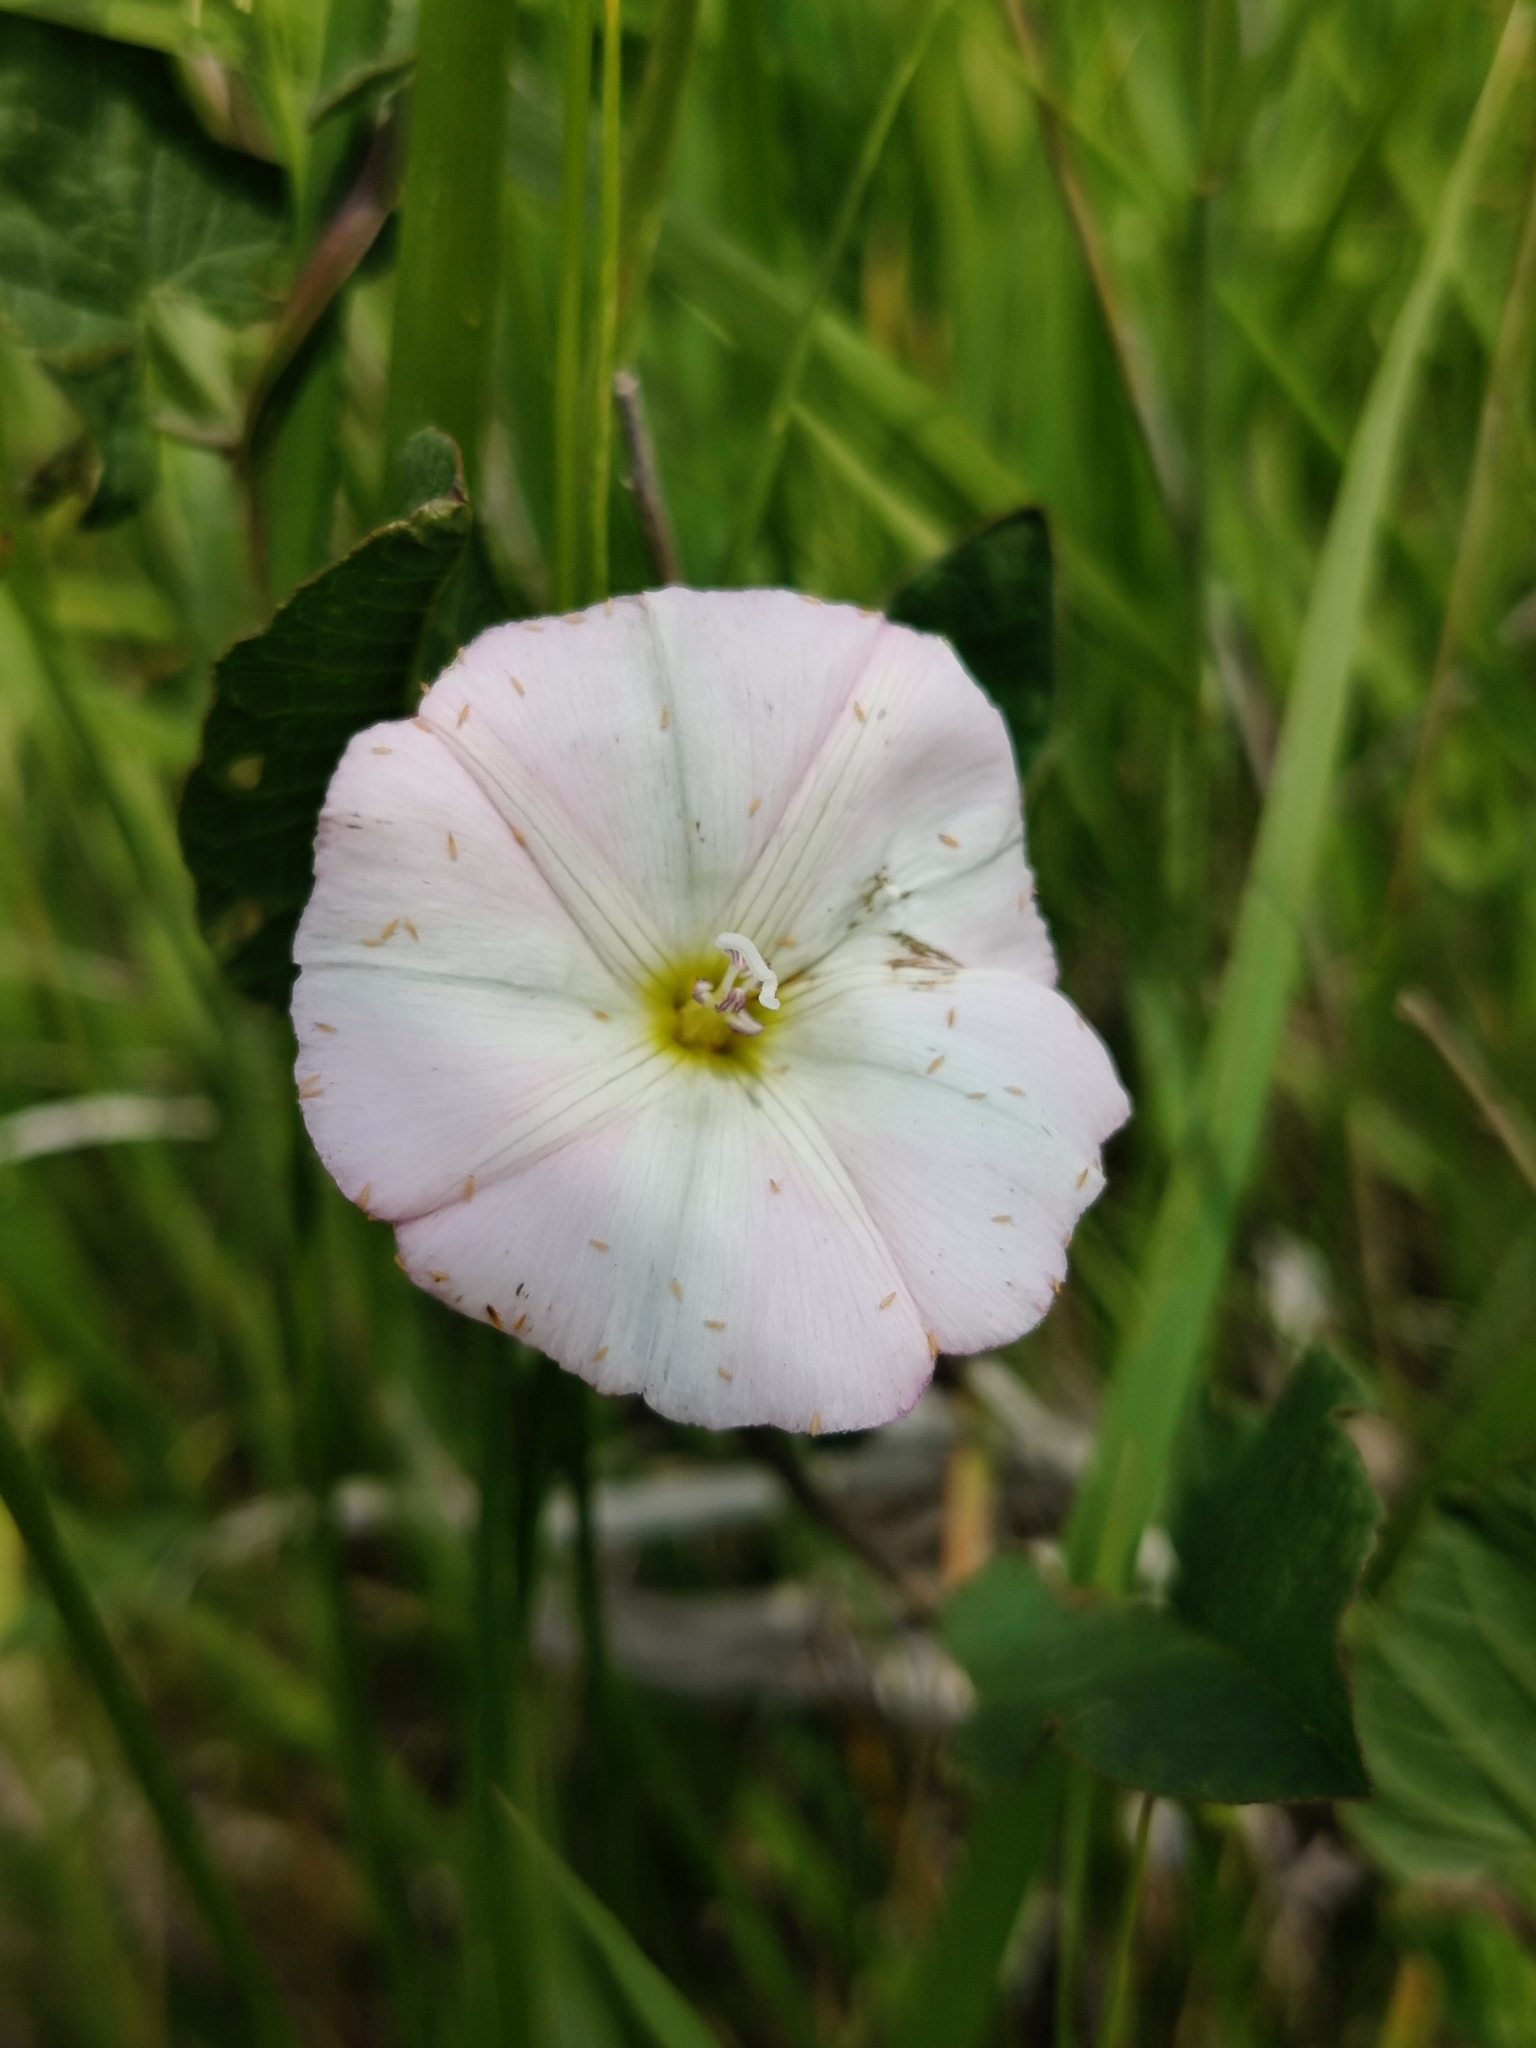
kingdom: Plantae
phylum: Tracheophyta
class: Magnoliopsida
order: Solanales
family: Convolvulaceae
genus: Convolvulus
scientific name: Convolvulus arvensis
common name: Field bindweed
